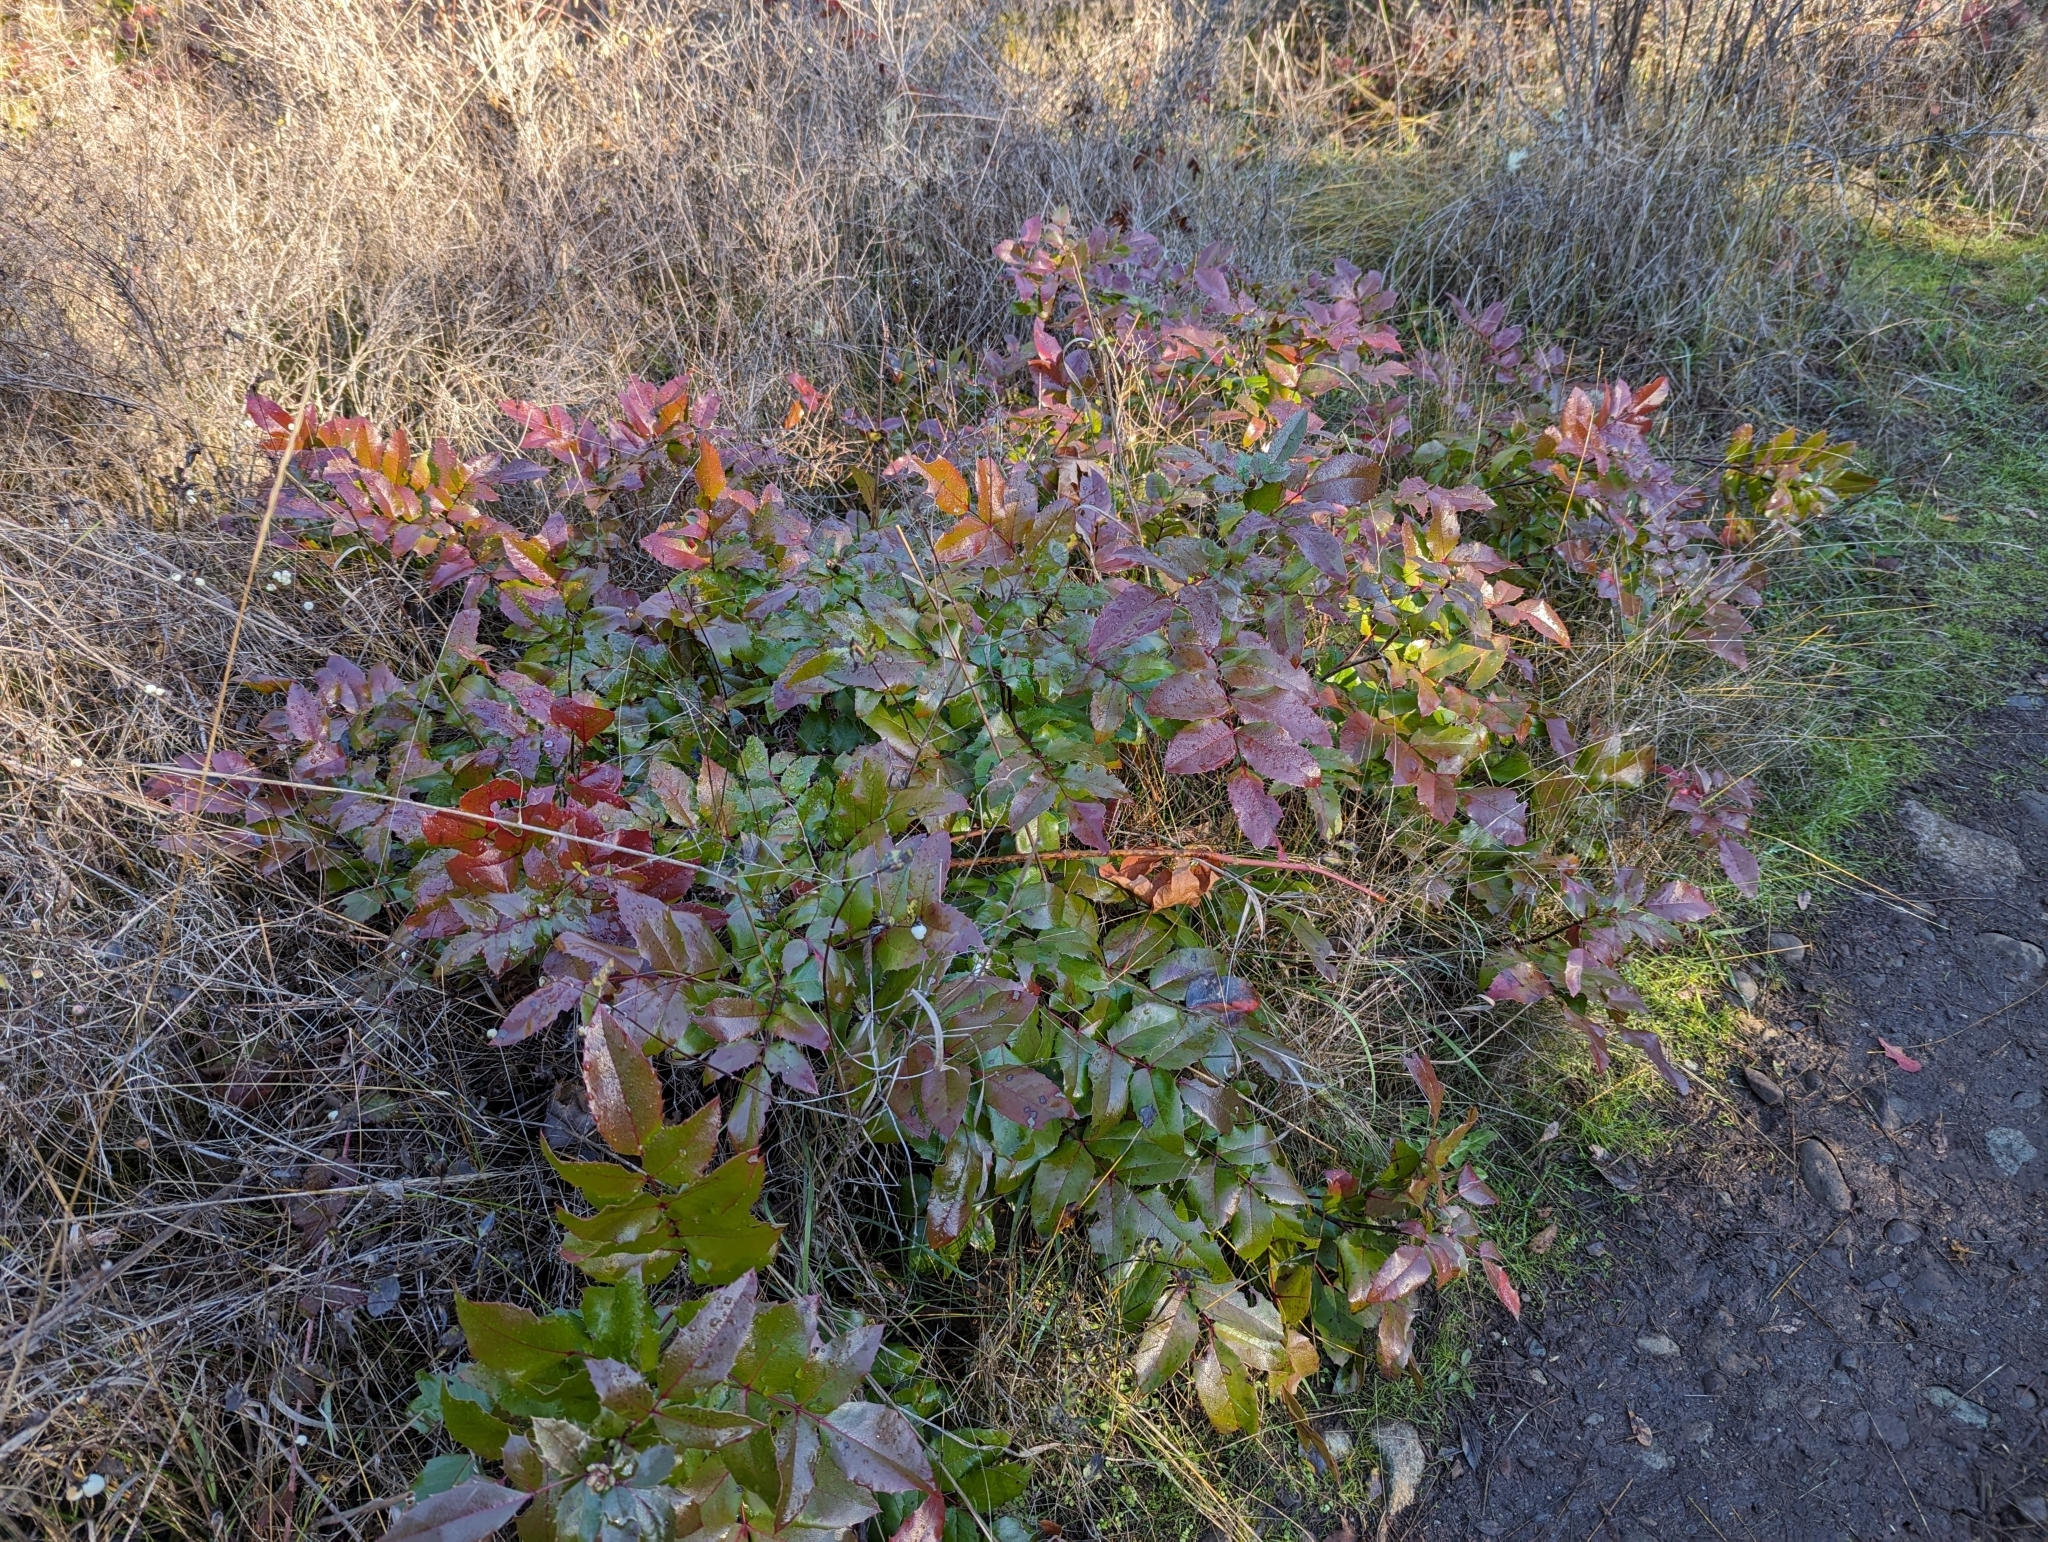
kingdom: Plantae
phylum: Tracheophyta
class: Magnoliopsida
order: Ranunculales
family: Berberidaceae
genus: Mahonia
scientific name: Mahonia aquifolium
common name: Oregon-grape
